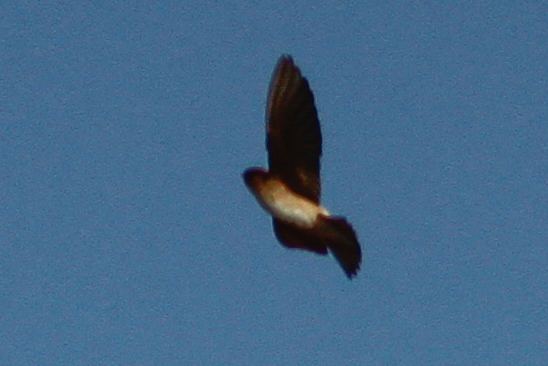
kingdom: Animalia
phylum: Chordata
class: Aves
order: Passeriformes
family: Hirundinidae
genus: Petrochelidon
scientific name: Petrochelidon ariel
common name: Fairy martin
